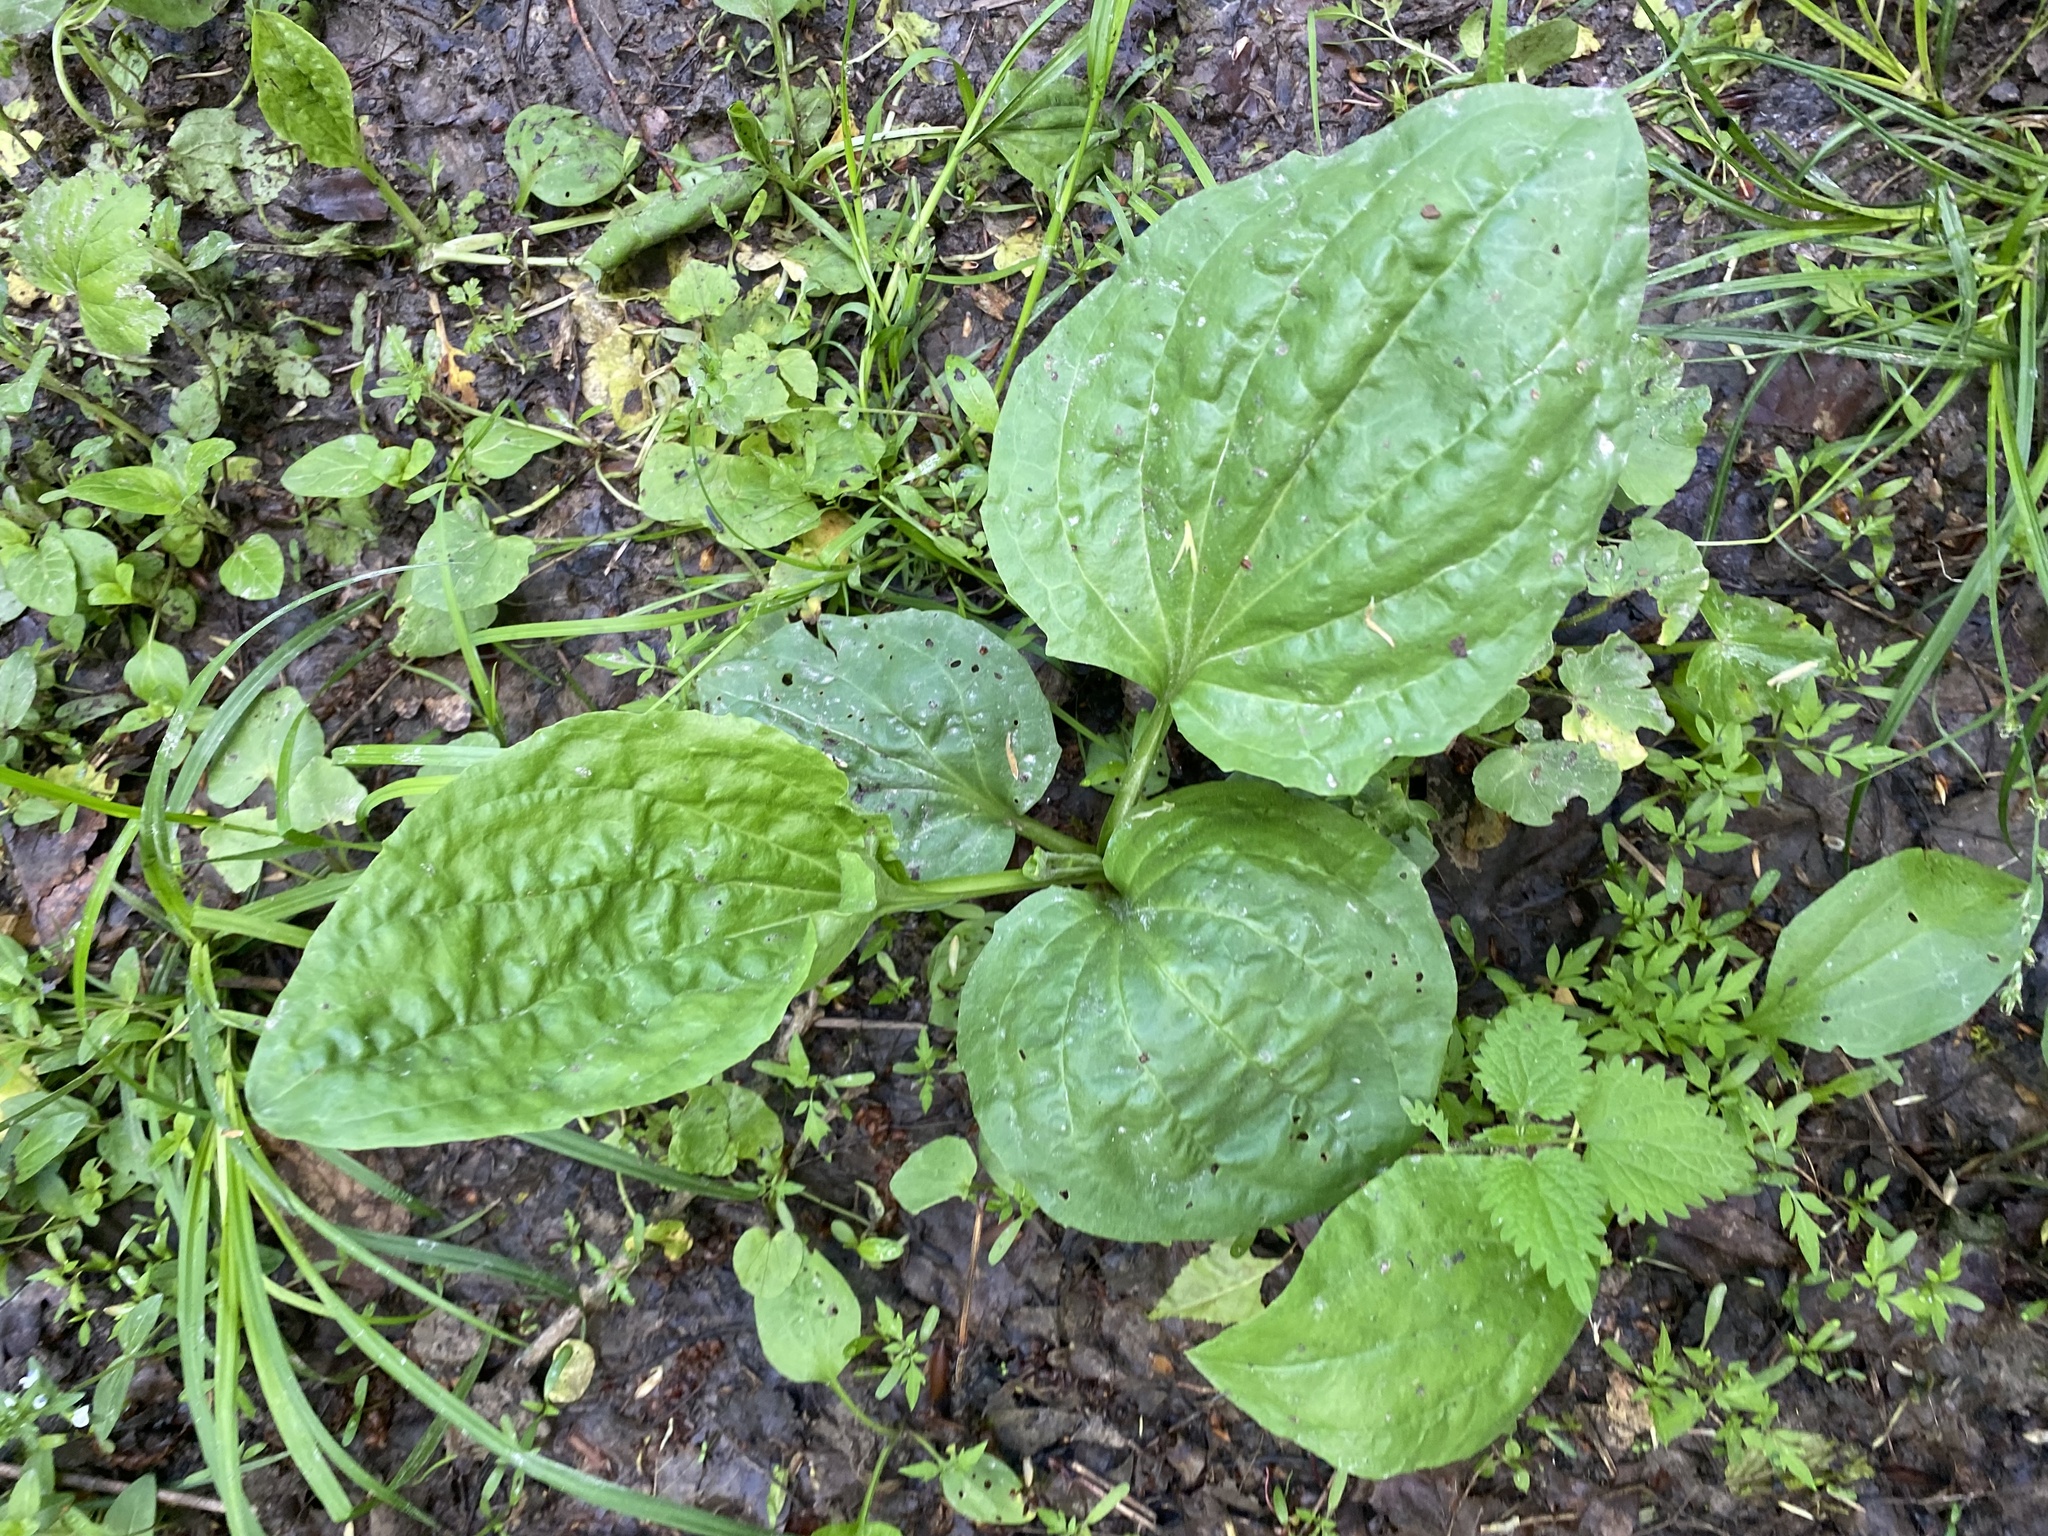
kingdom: Plantae
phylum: Tracheophyta
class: Magnoliopsida
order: Lamiales
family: Plantaginaceae
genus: Plantago
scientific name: Plantago major
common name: Common plantain
